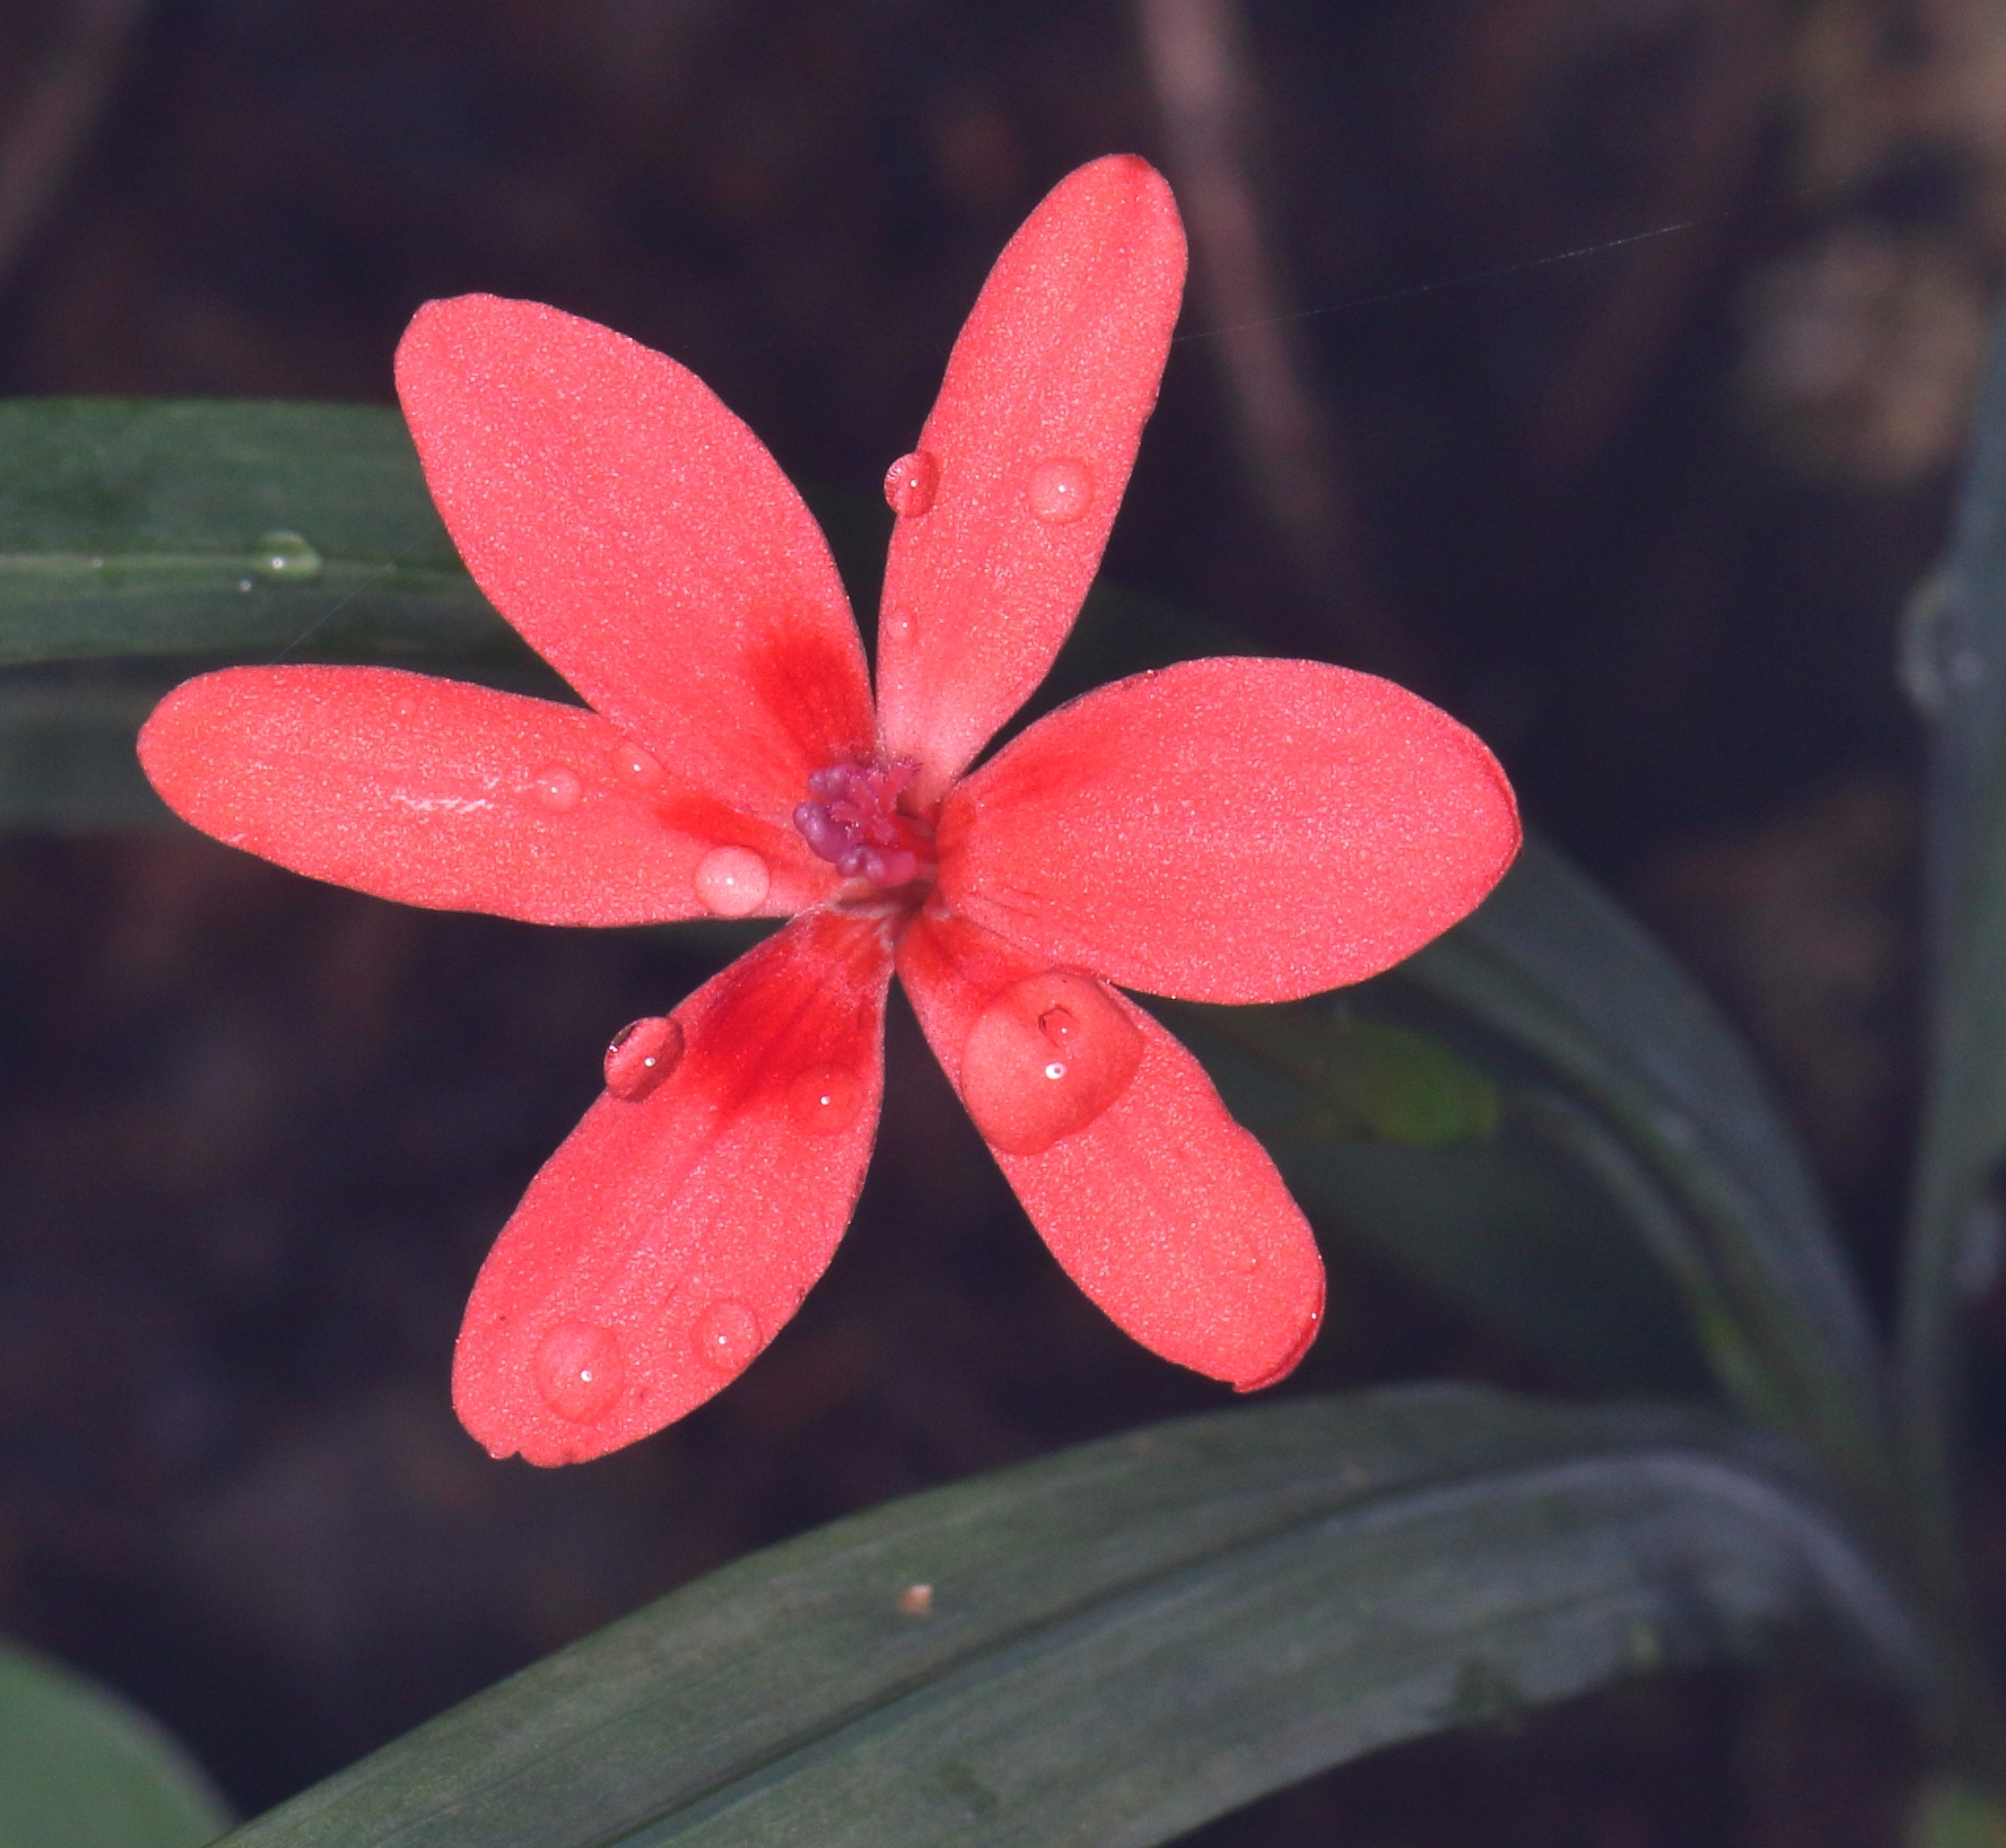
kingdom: Plantae
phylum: Tracheophyta
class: Liliopsida
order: Asparagales
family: Iridaceae
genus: Freesia
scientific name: Freesia laxa
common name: False freesia
